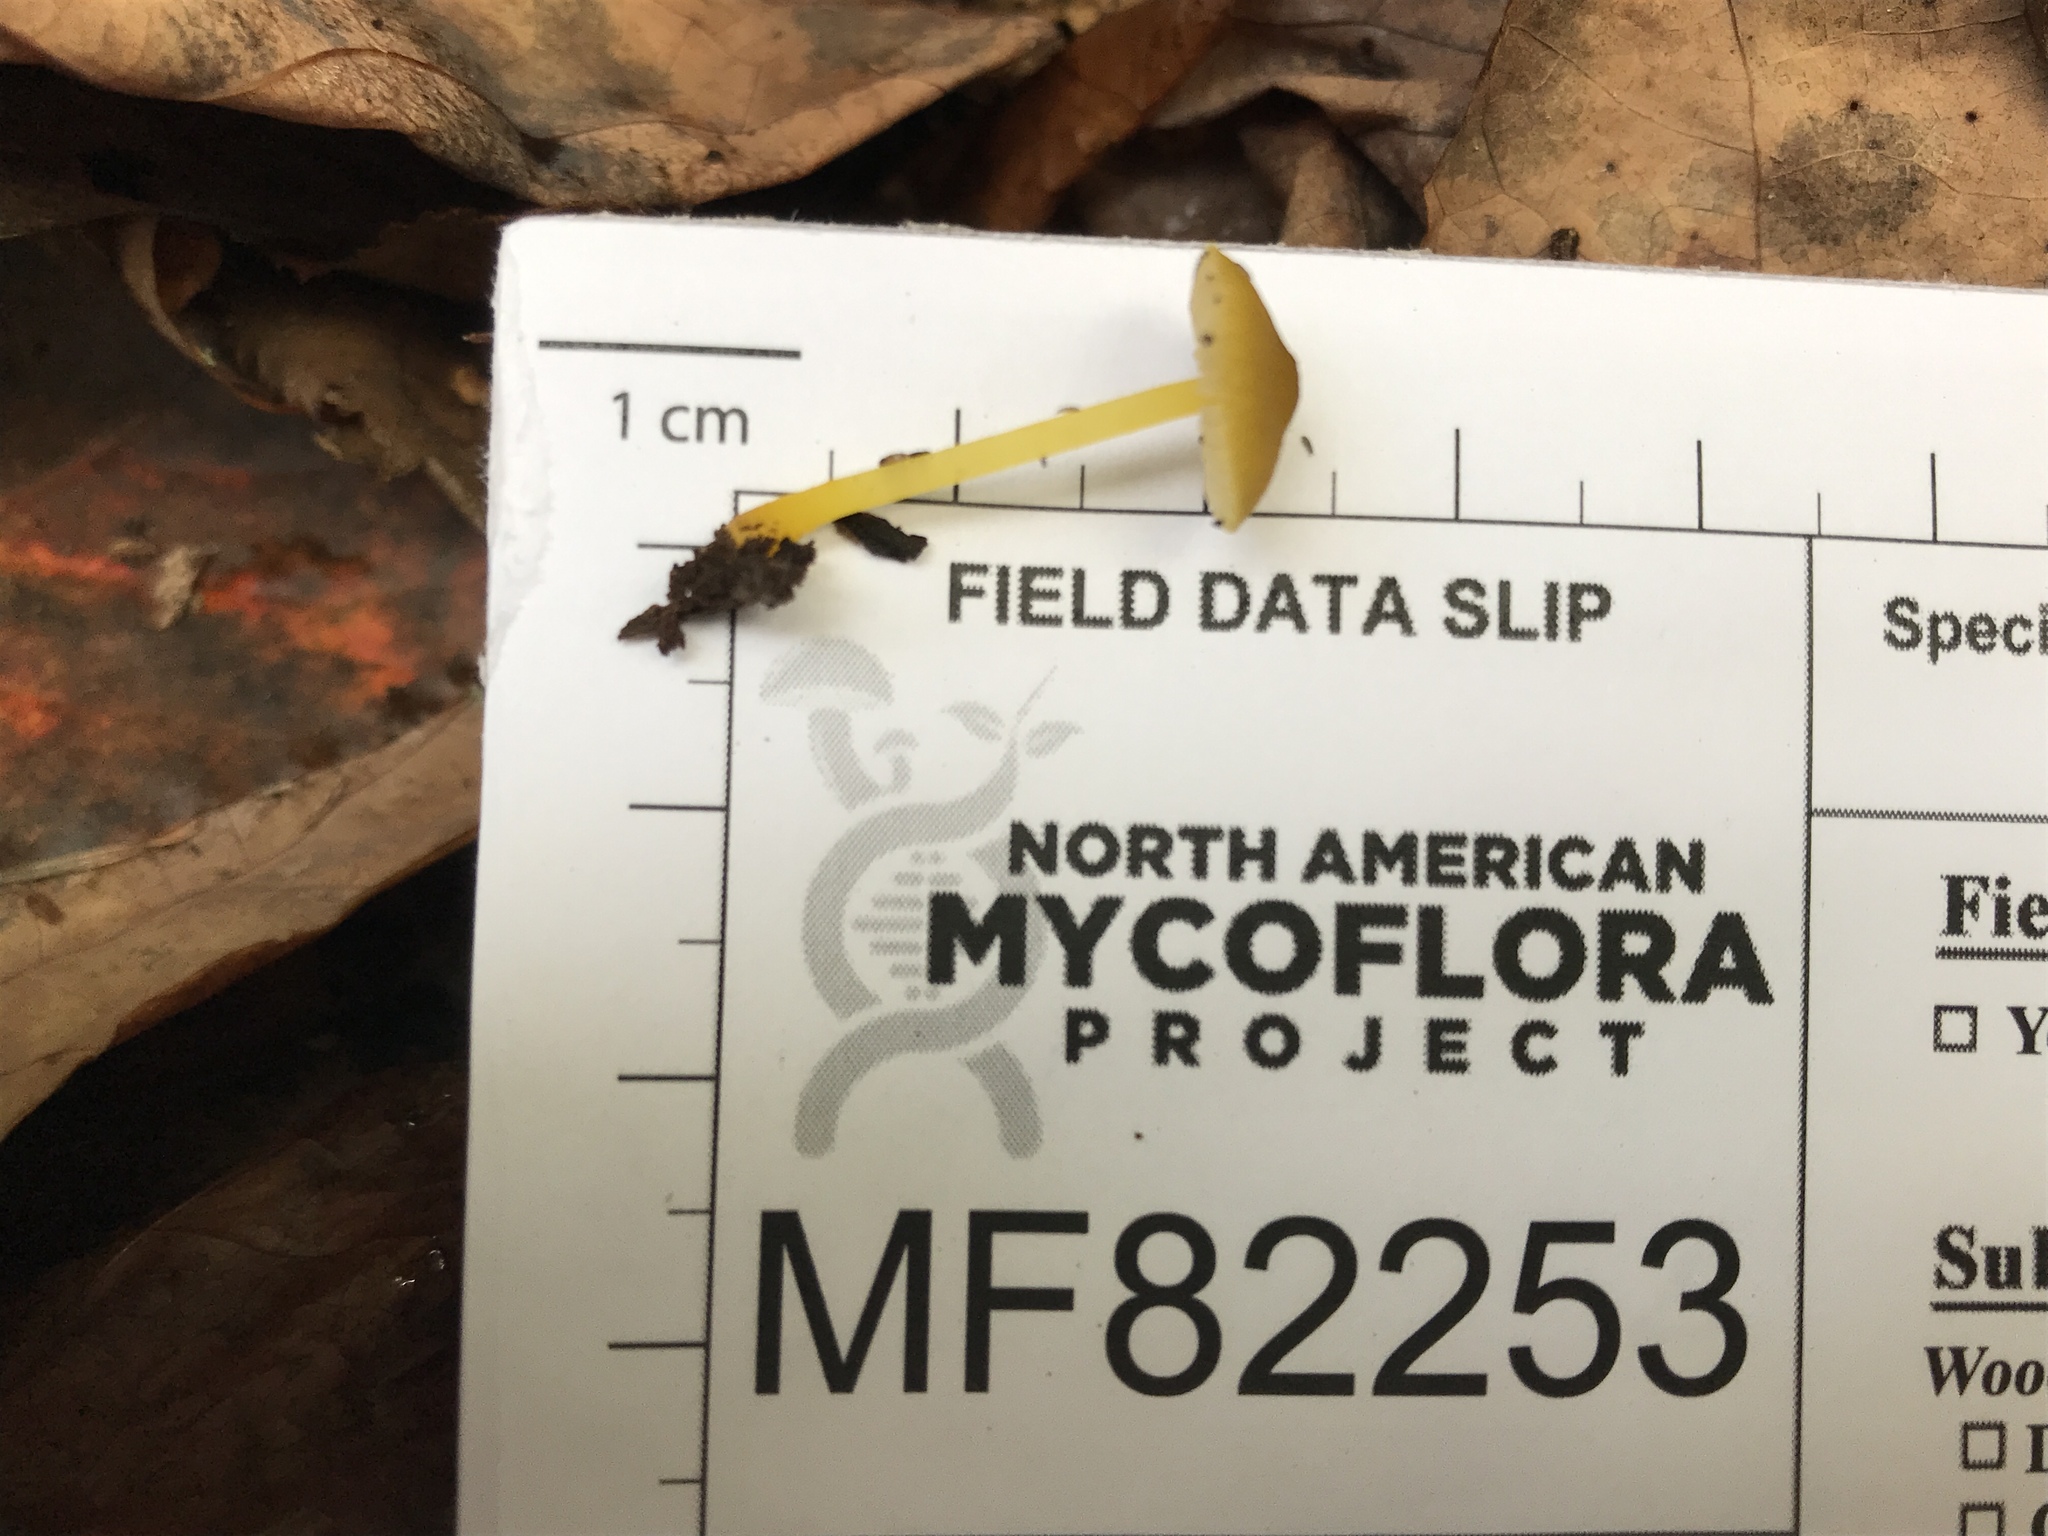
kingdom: Fungi
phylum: Basidiomycota
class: Agaricomycetes
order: Agaricales
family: Mycenaceae
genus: Mycena
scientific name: Mycena crocea
